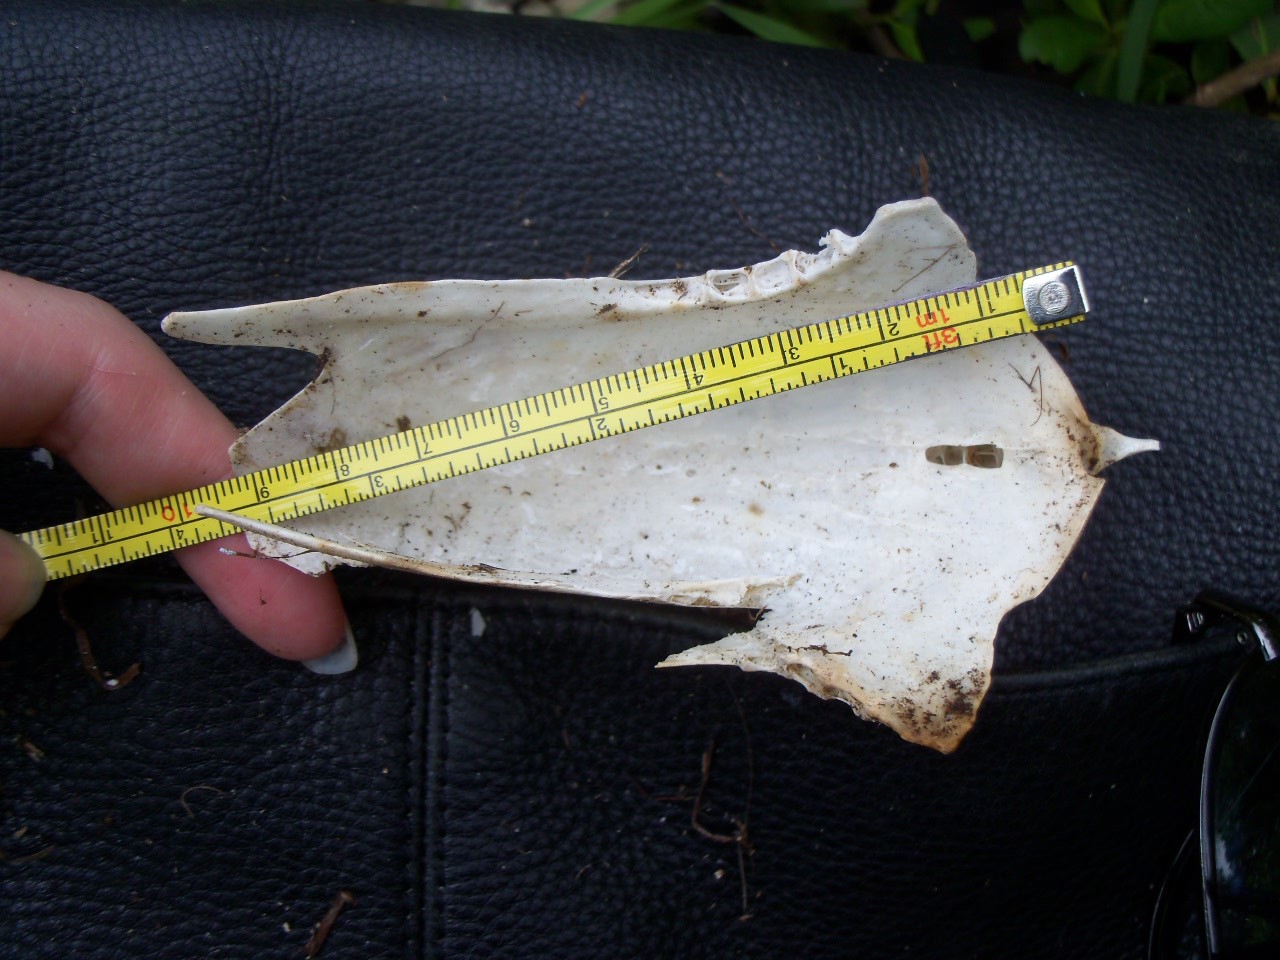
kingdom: Animalia
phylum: Chordata
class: Aves
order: Pelecaniformes
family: Ardeidae
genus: Ardea
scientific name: Ardea herodias
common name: Great blue heron
